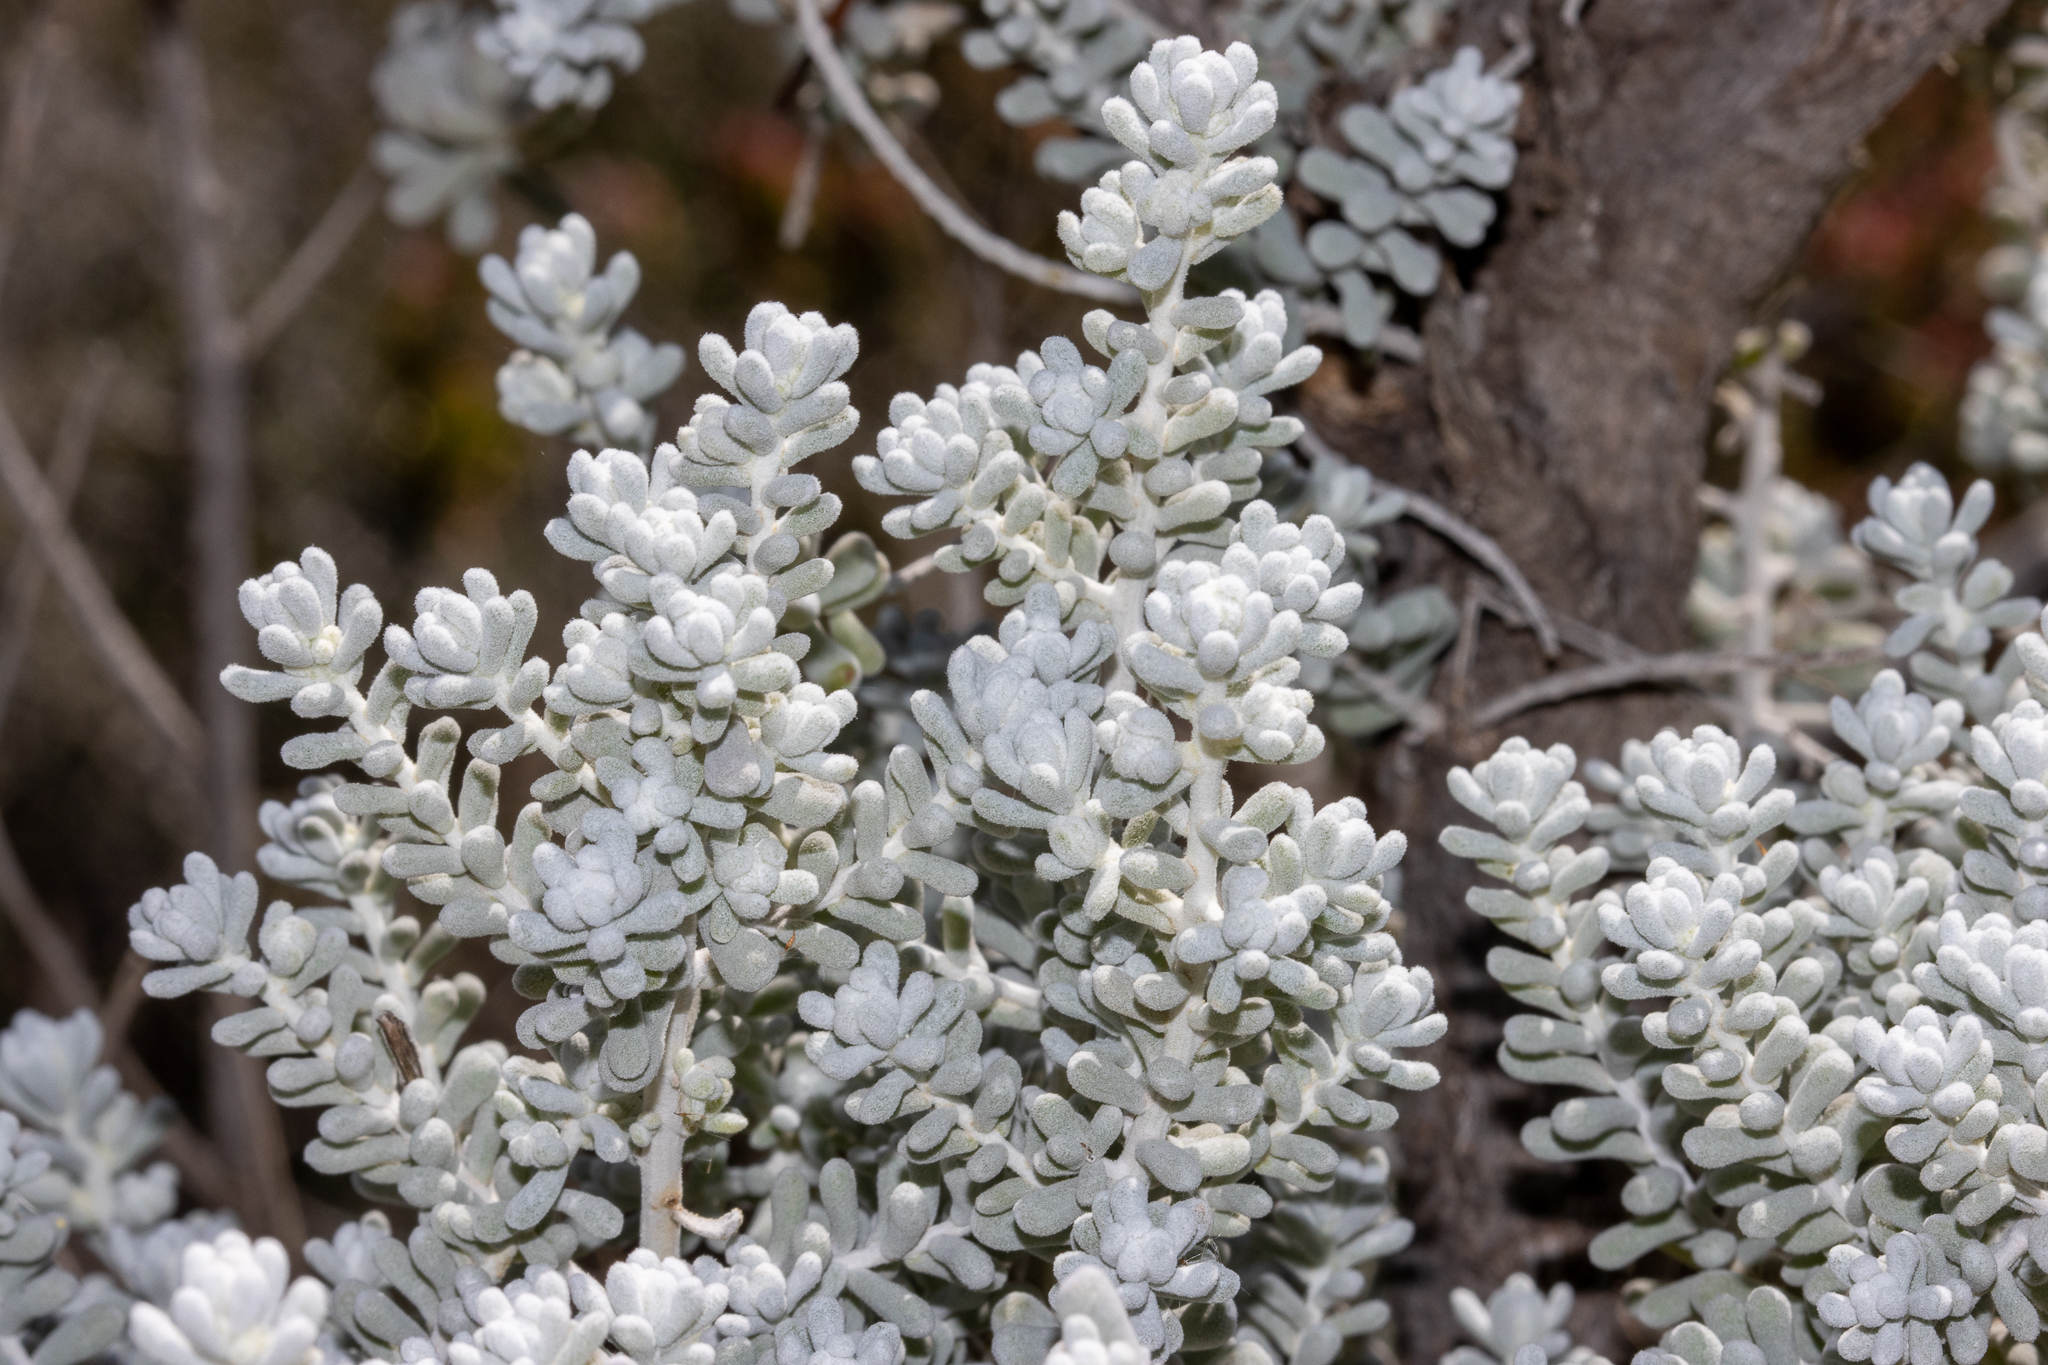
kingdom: Plantae
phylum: Tracheophyta
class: Magnoliopsida
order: Caryophyllales
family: Amaranthaceae
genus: Maireana
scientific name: Maireana sedifolia
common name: Hoary bluebush
